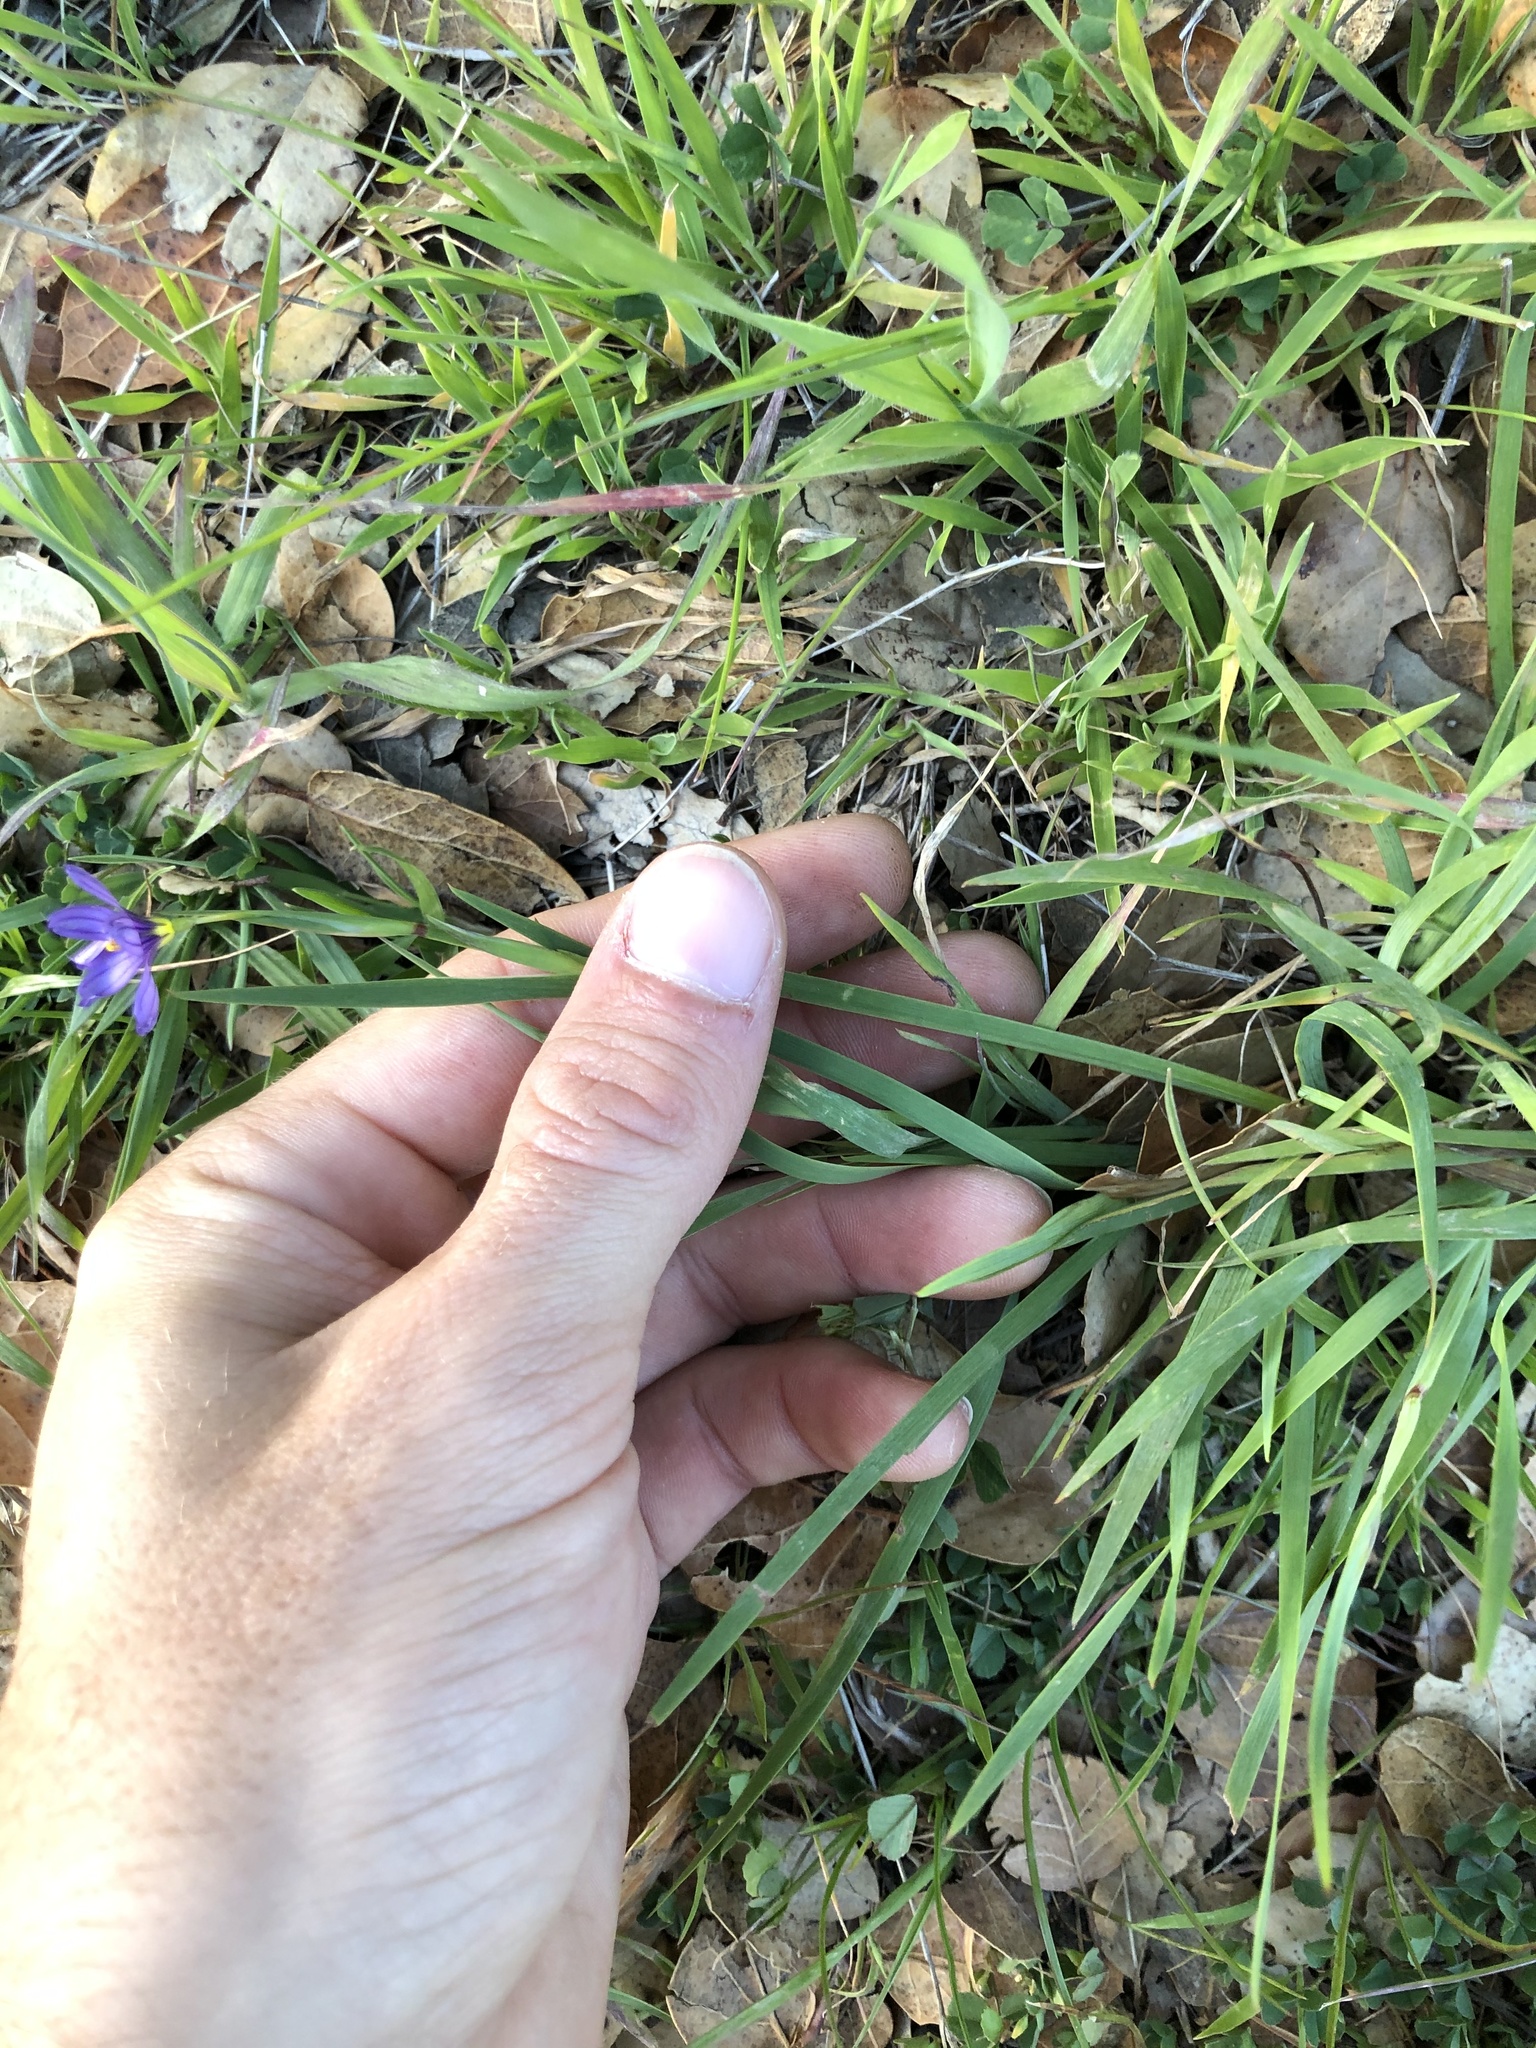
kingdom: Plantae
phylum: Tracheophyta
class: Liliopsida
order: Asparagales
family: Iridaceae
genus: Sisyrinchium
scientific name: Sisyrinchium bellum
